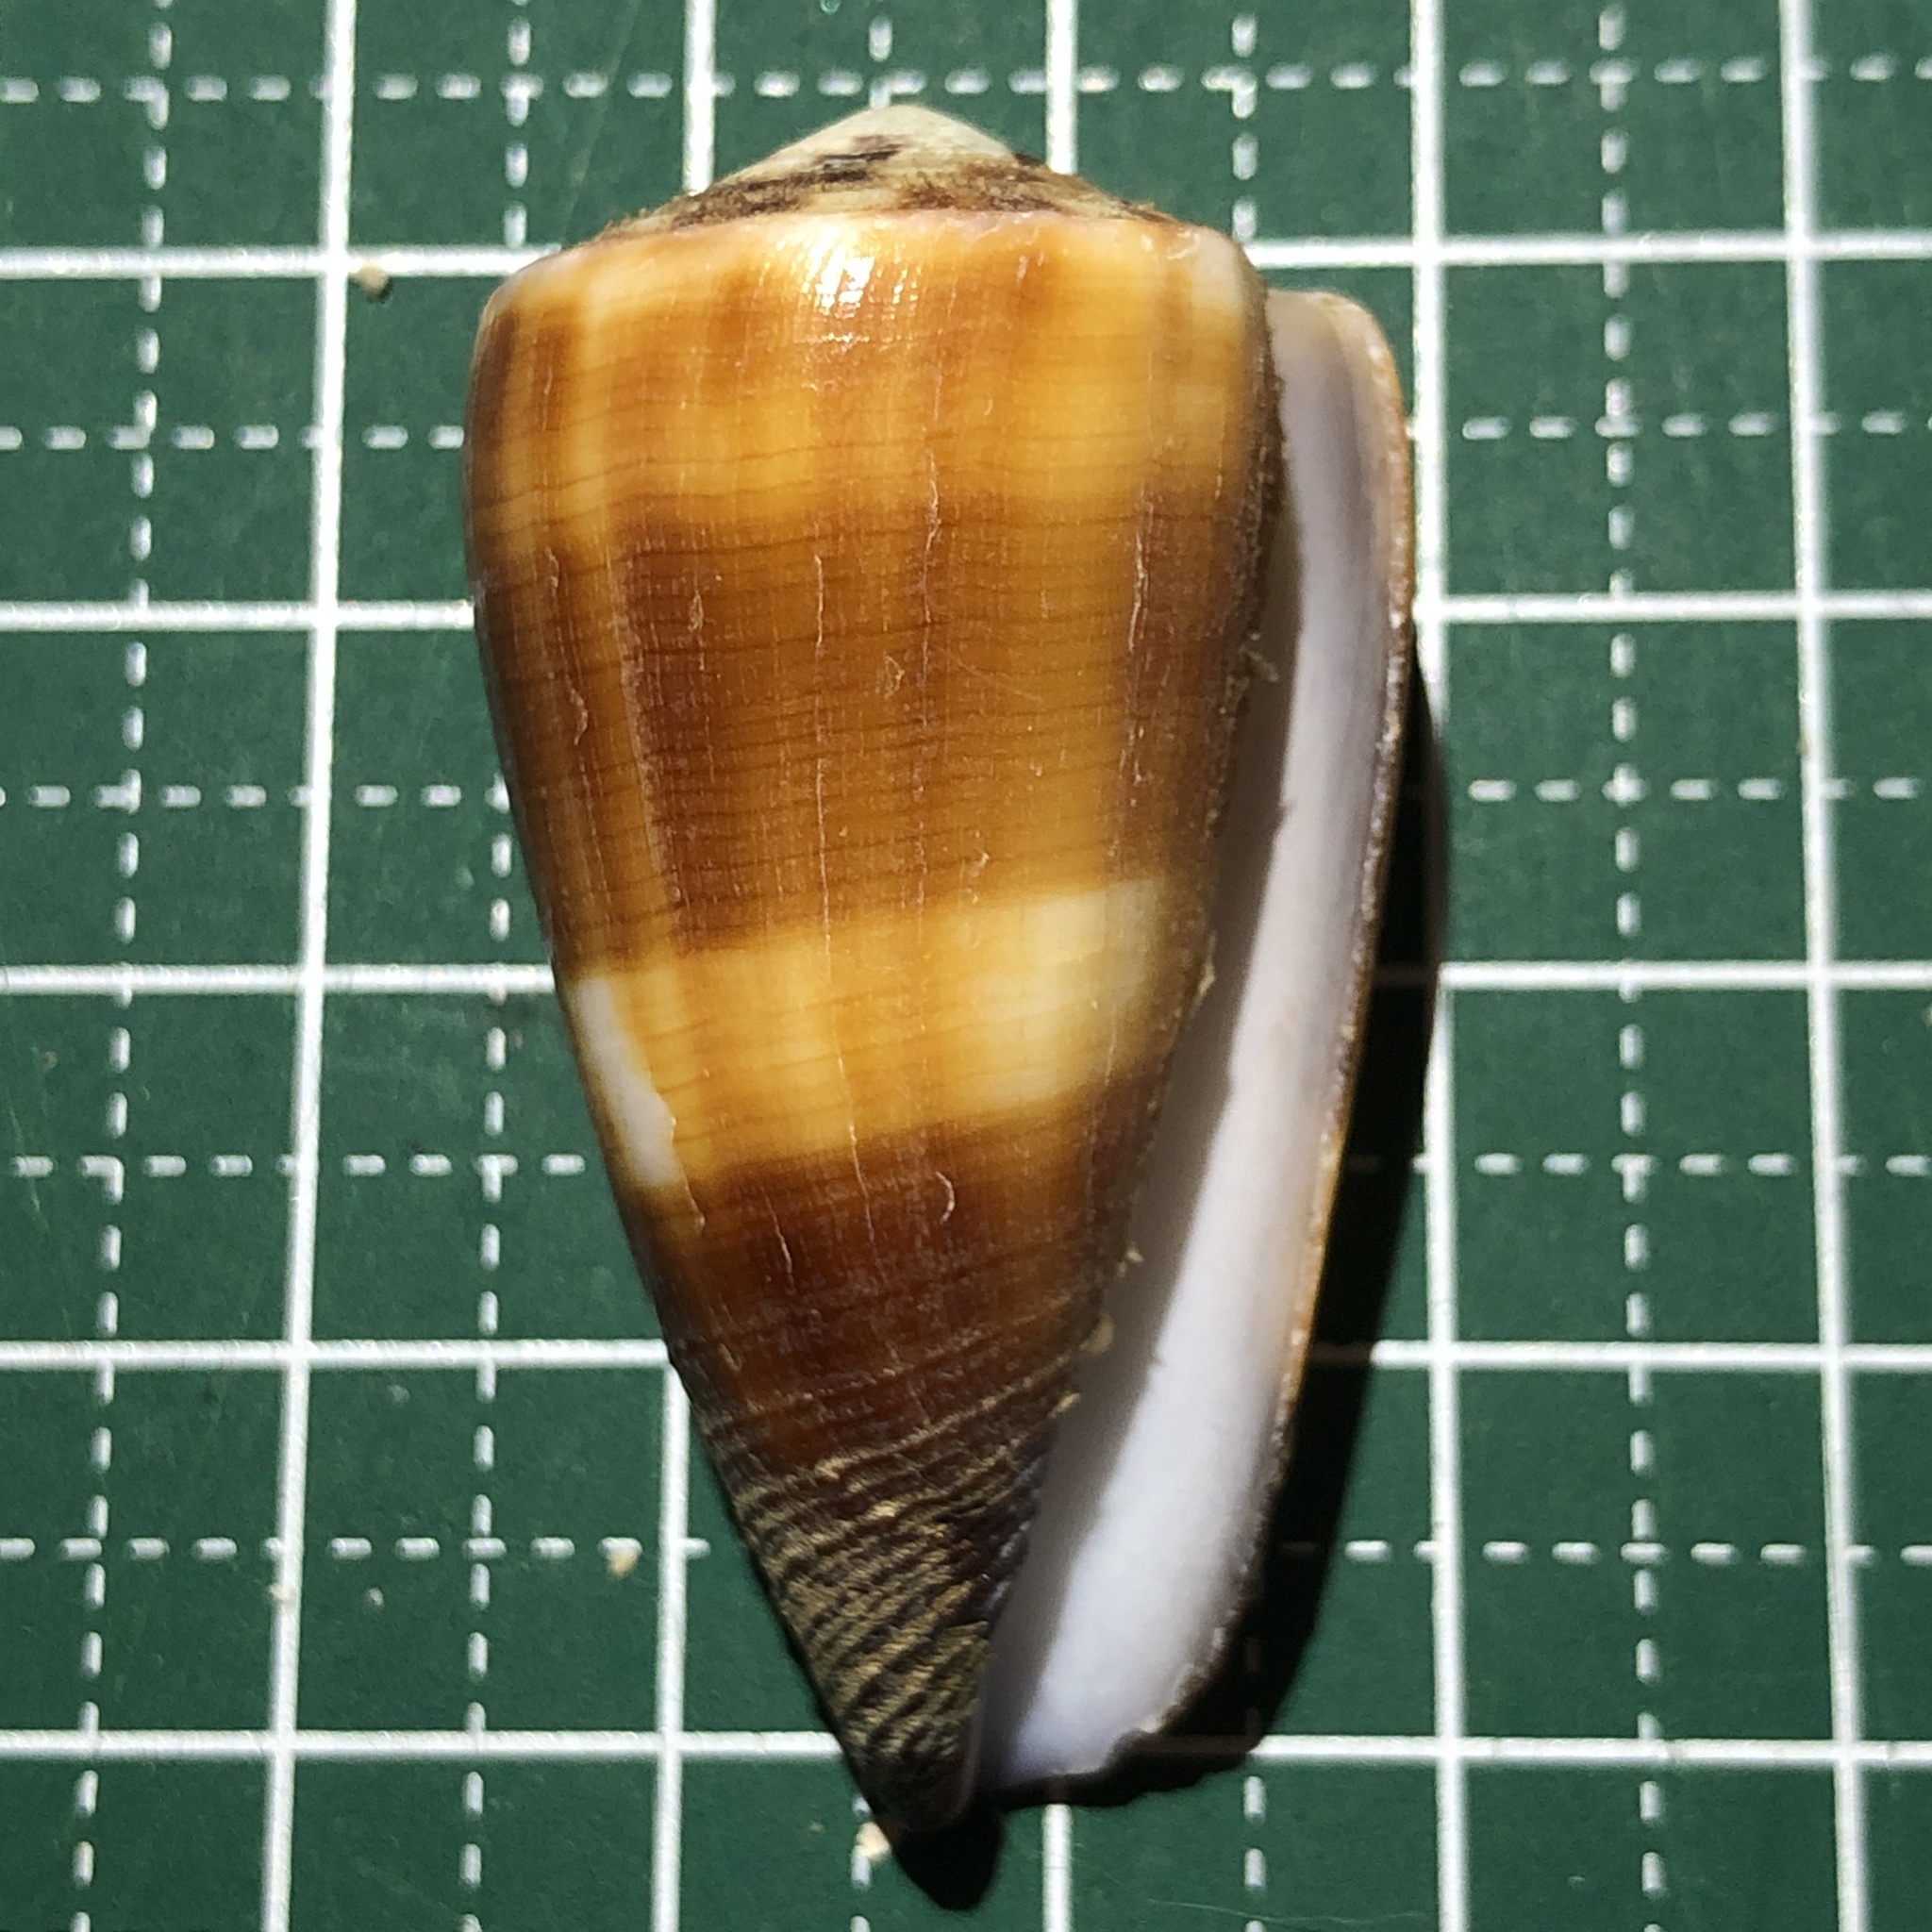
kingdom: Animalia
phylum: Mollusca
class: Gastropoda
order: Neogastropoda
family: Conidae
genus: Conus
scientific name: Conus striatellus
